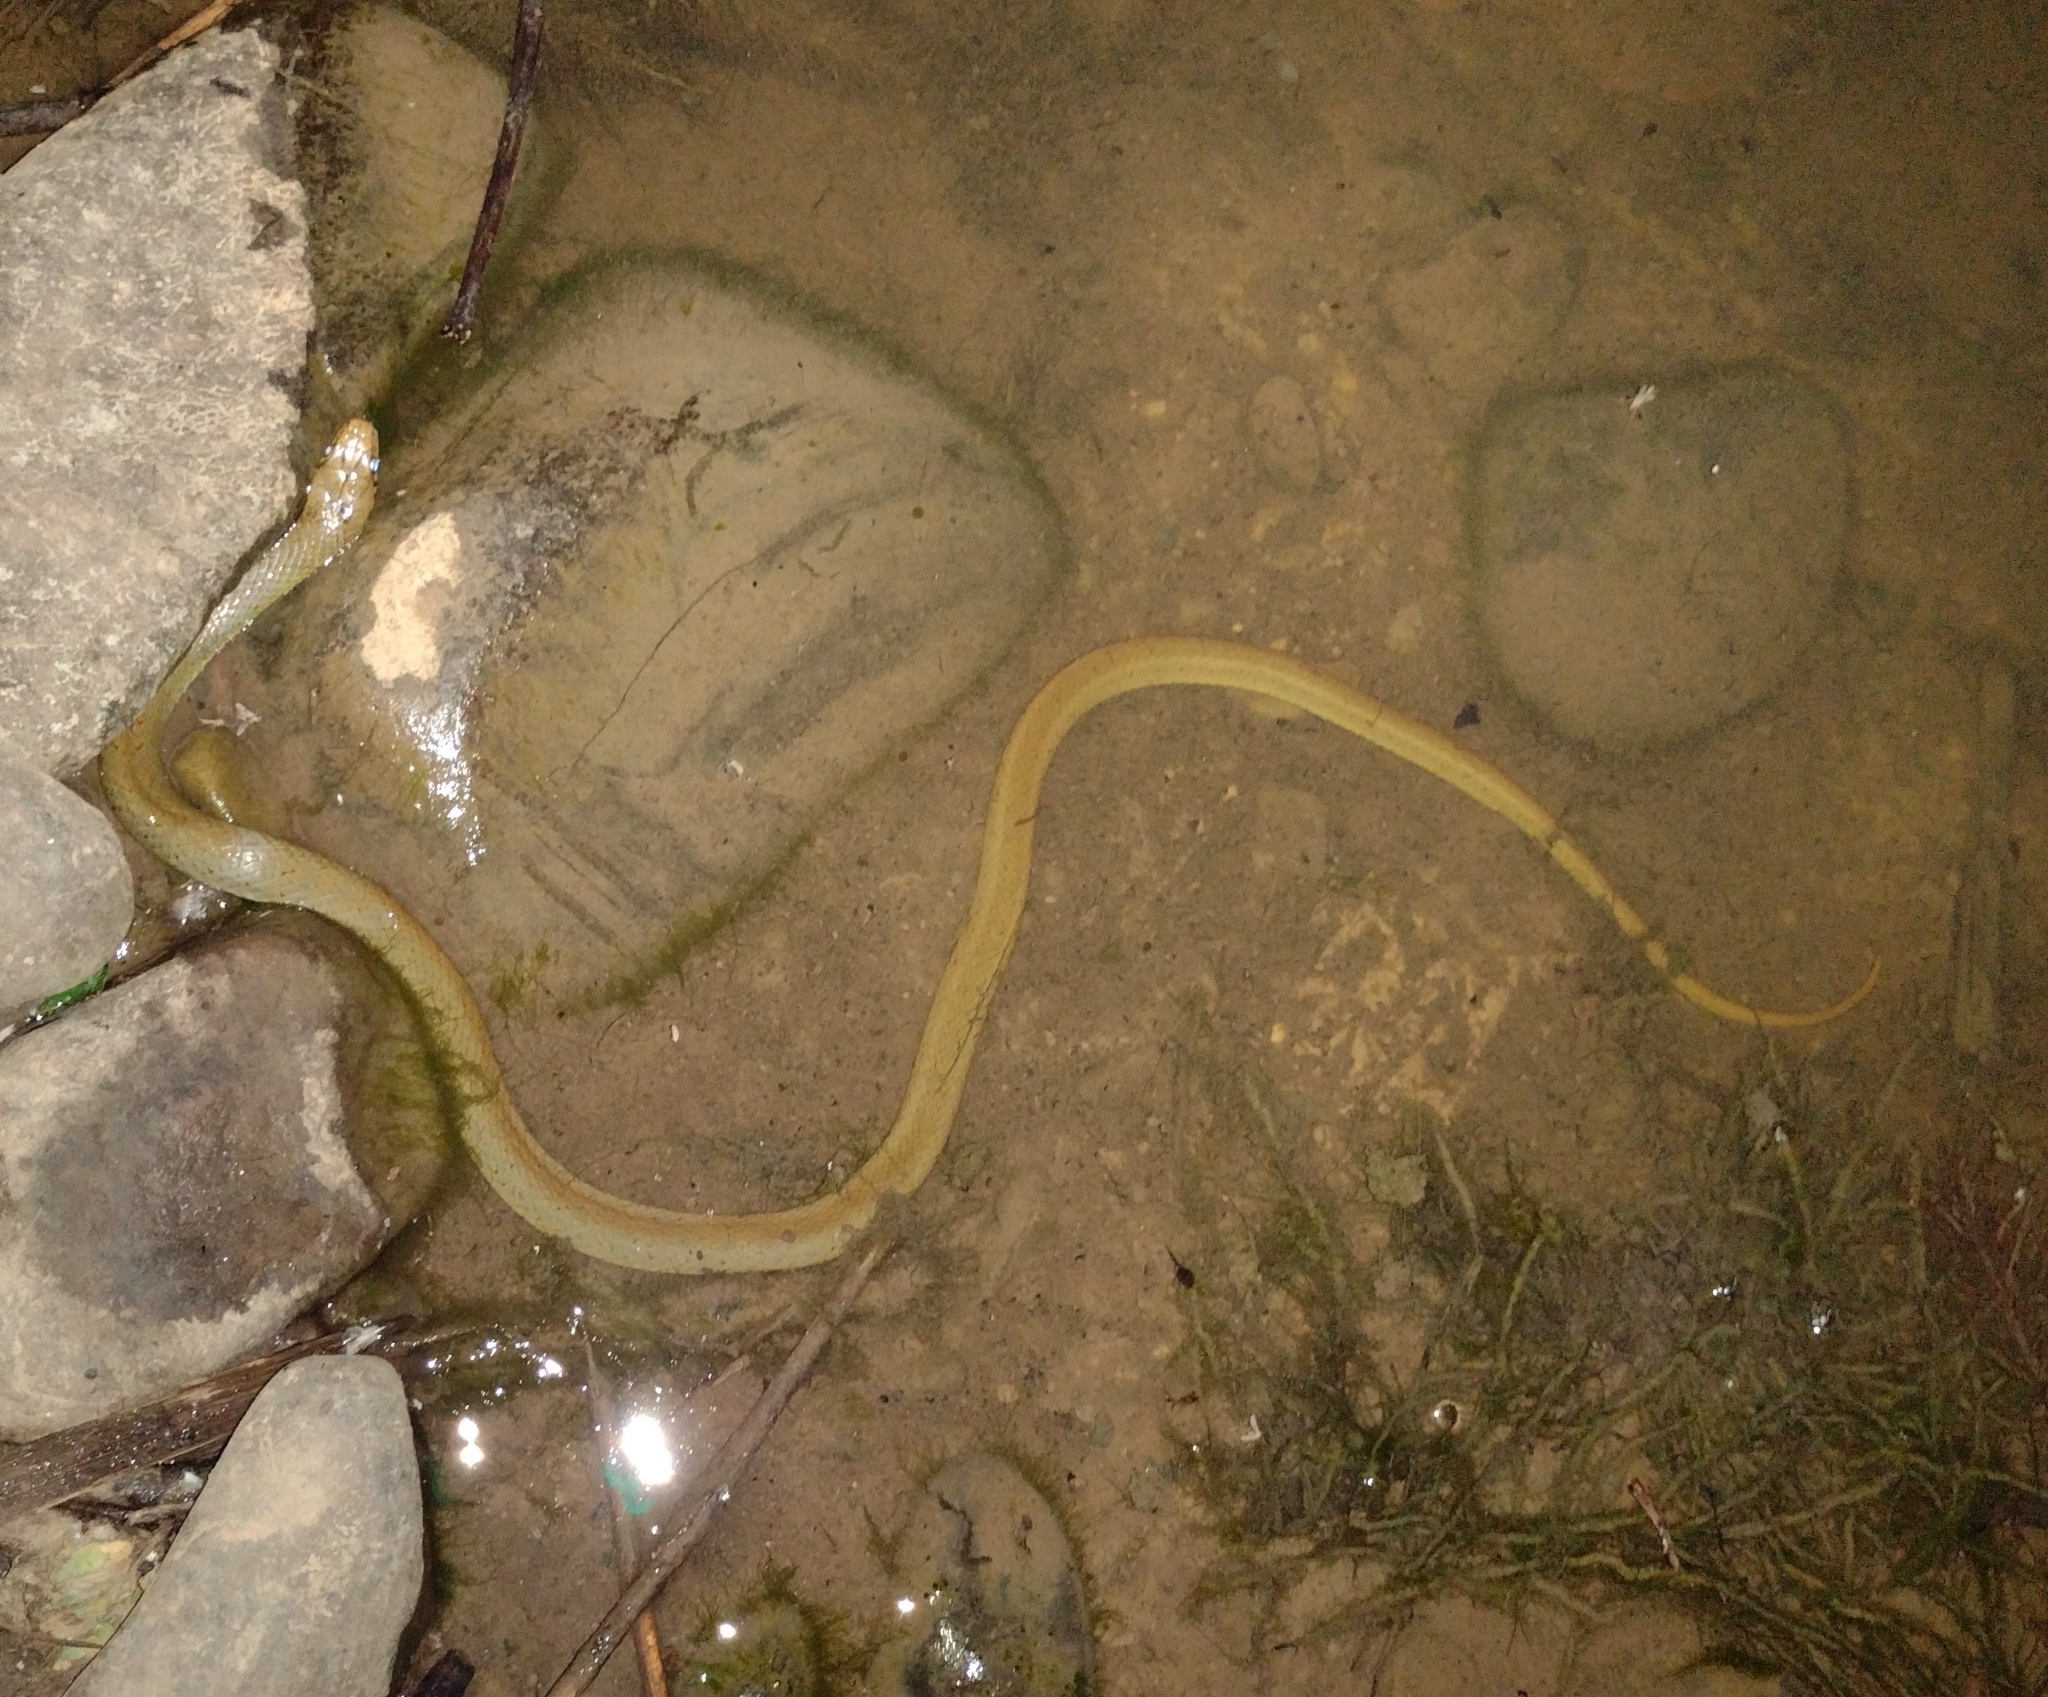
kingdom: Animalia
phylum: Chordata
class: Squamata
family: Colubridae
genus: Erythrolamprus
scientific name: Erythrolamprus ceii
